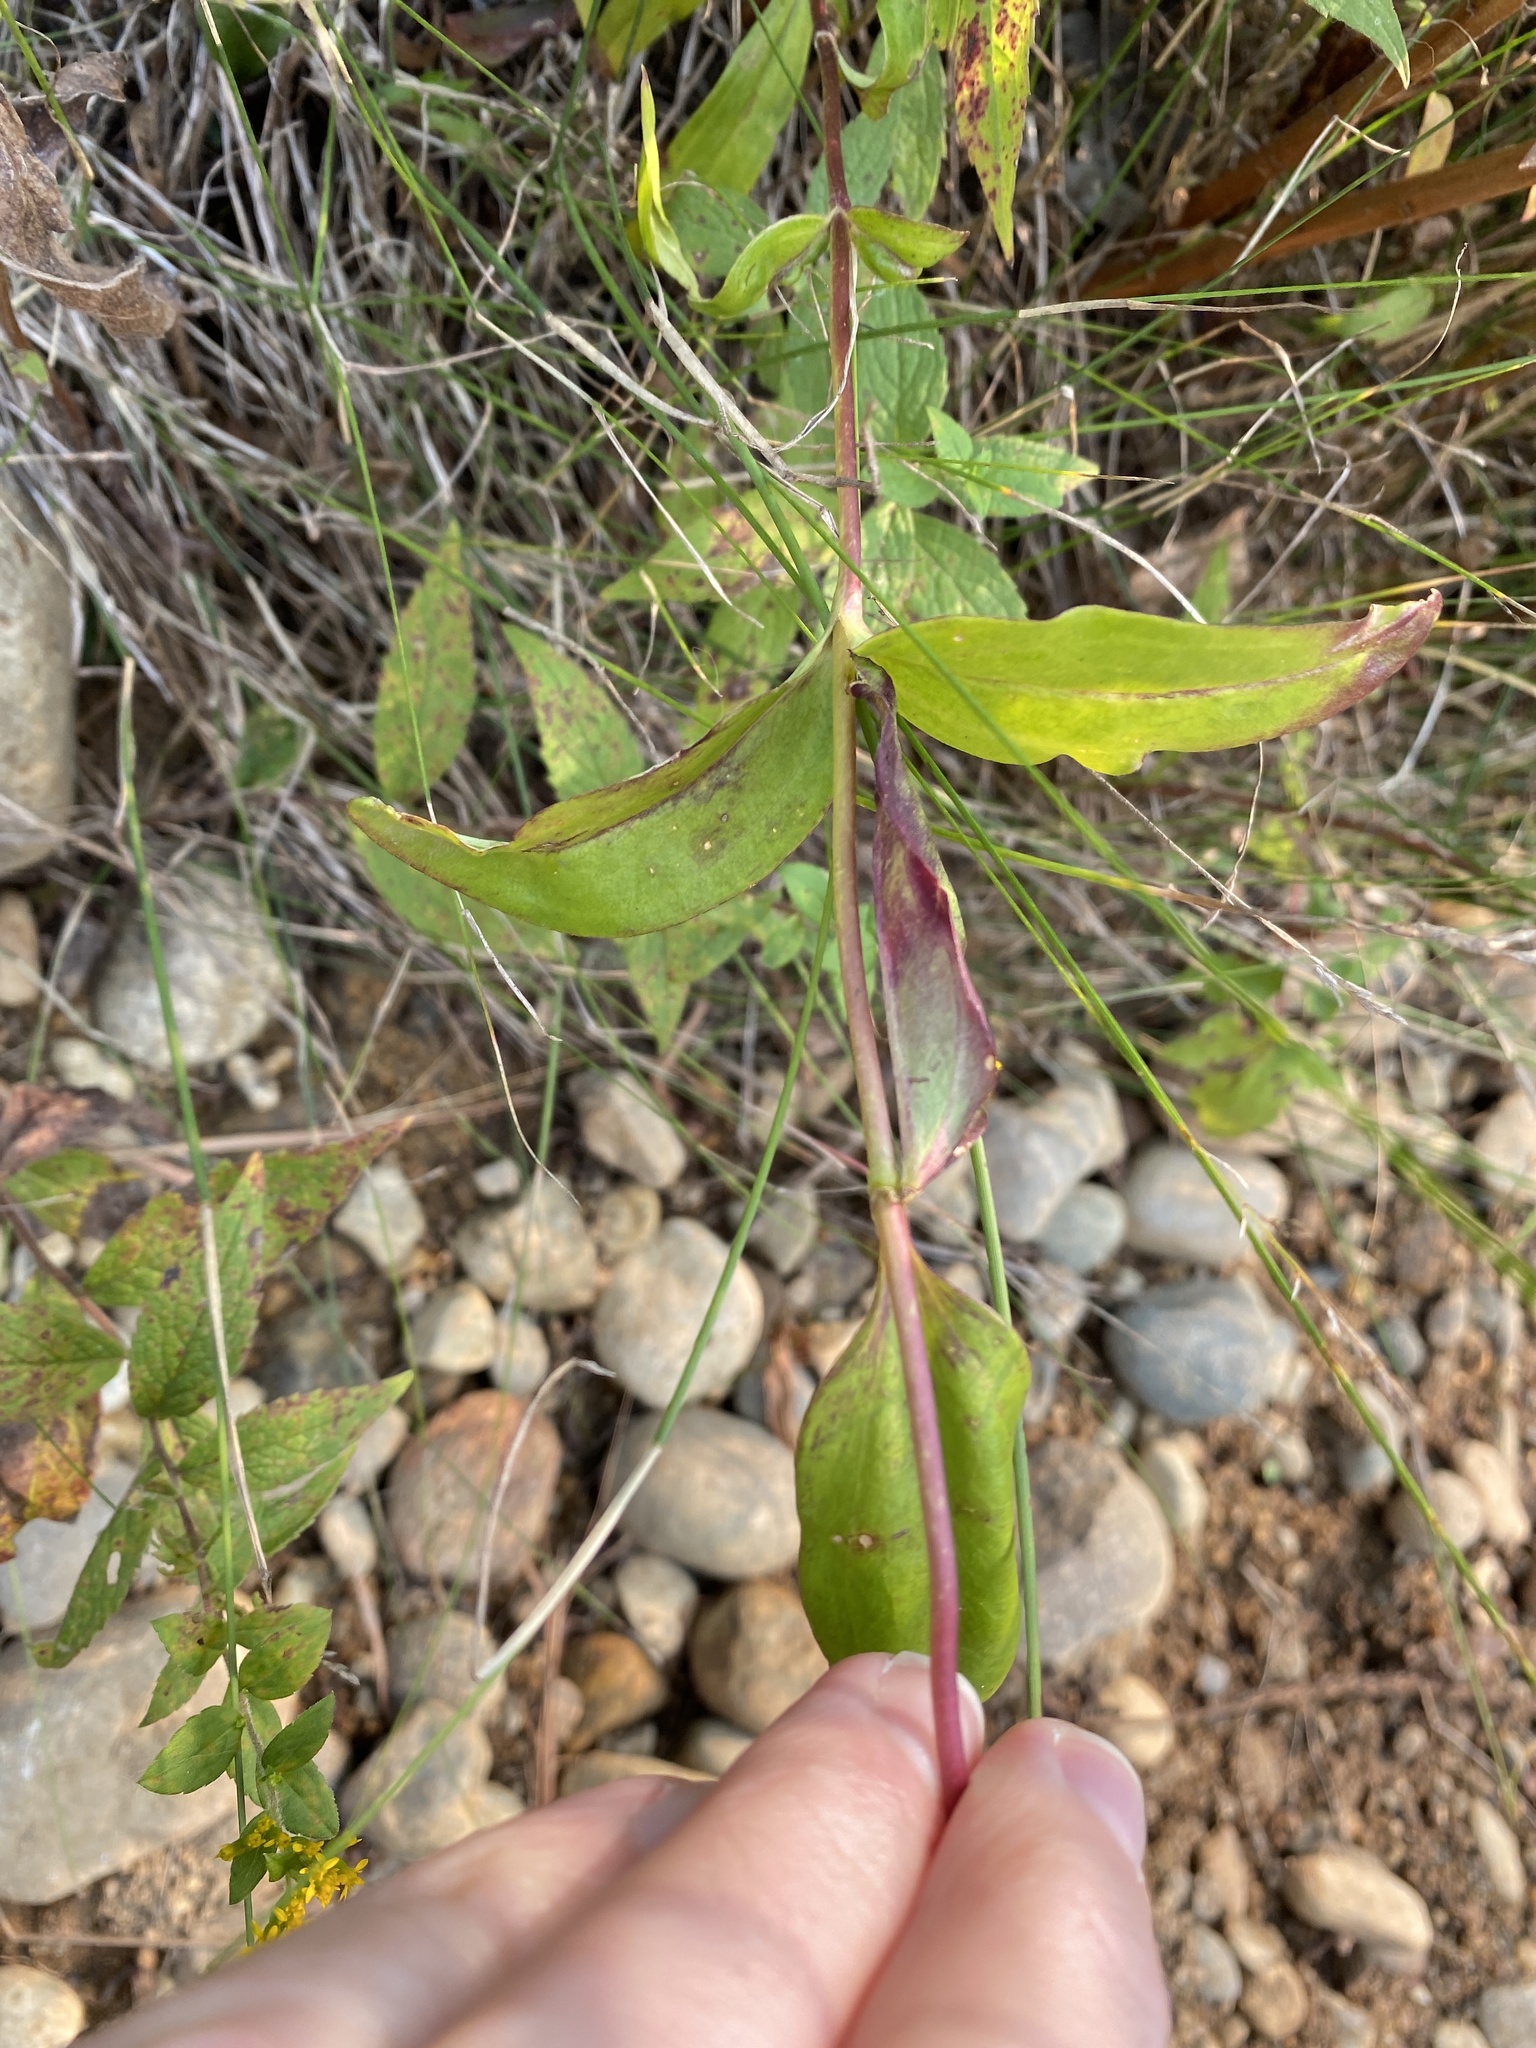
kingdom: Plantae
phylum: Tracheophyta
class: Magnoliopsida
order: Gentianales
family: Gentianaceae
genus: Gentiana
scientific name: Gentiana clausa
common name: Blind gentian
